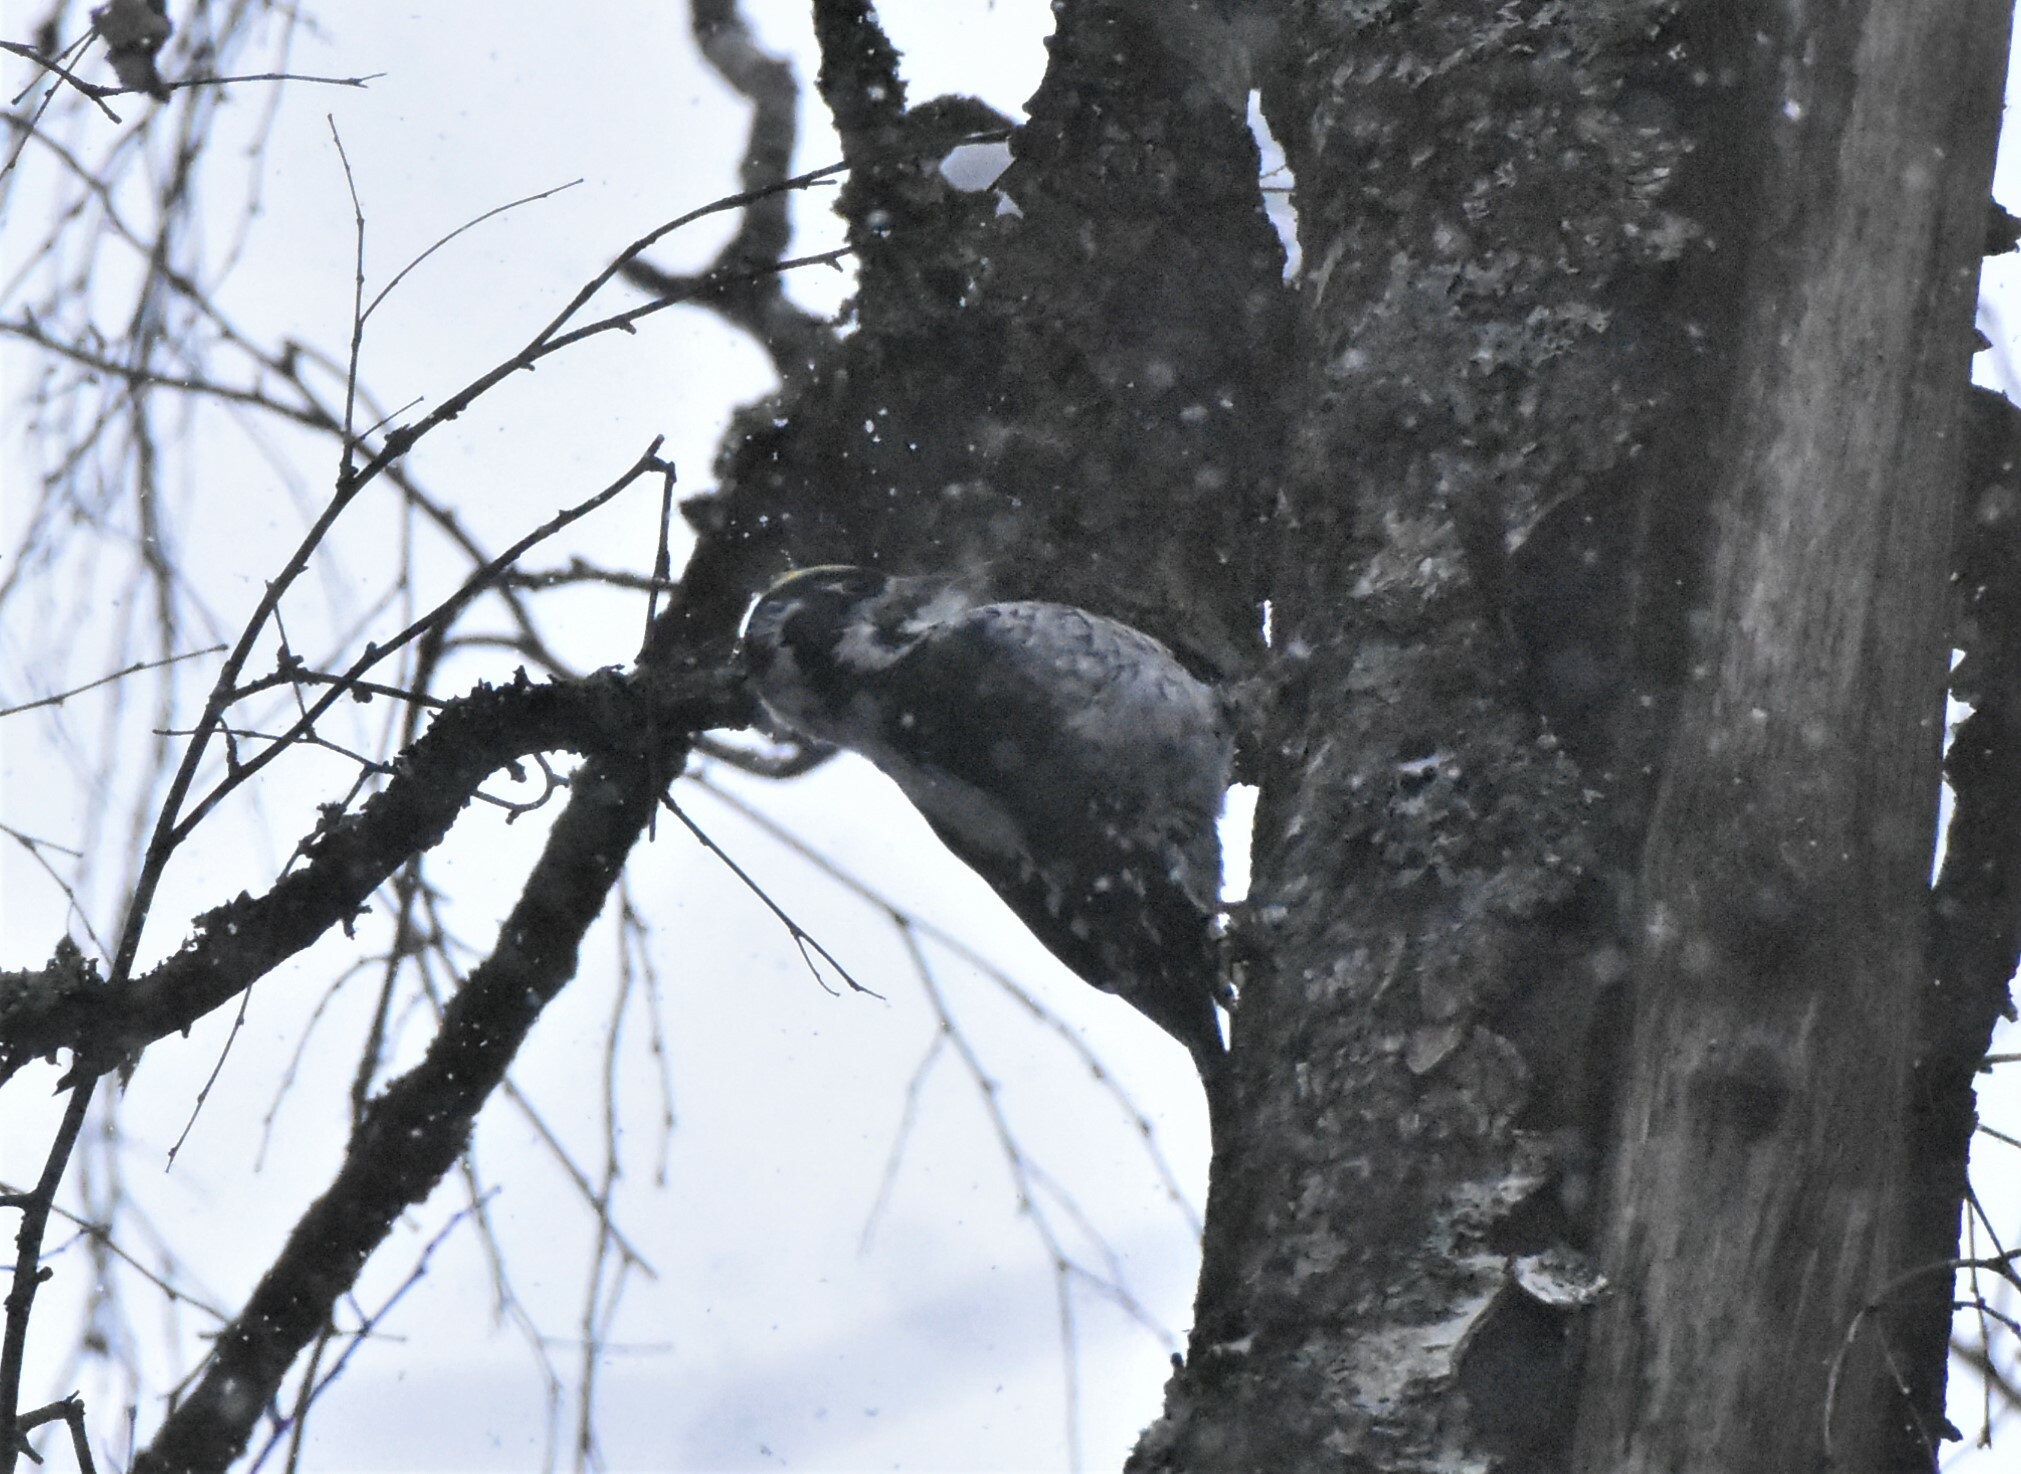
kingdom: Animalia
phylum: Chordata
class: Aves
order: Piciformes
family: Picidae
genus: Picoides
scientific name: Picoides tridactylus
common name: Eurasian three-toed woodpecker
